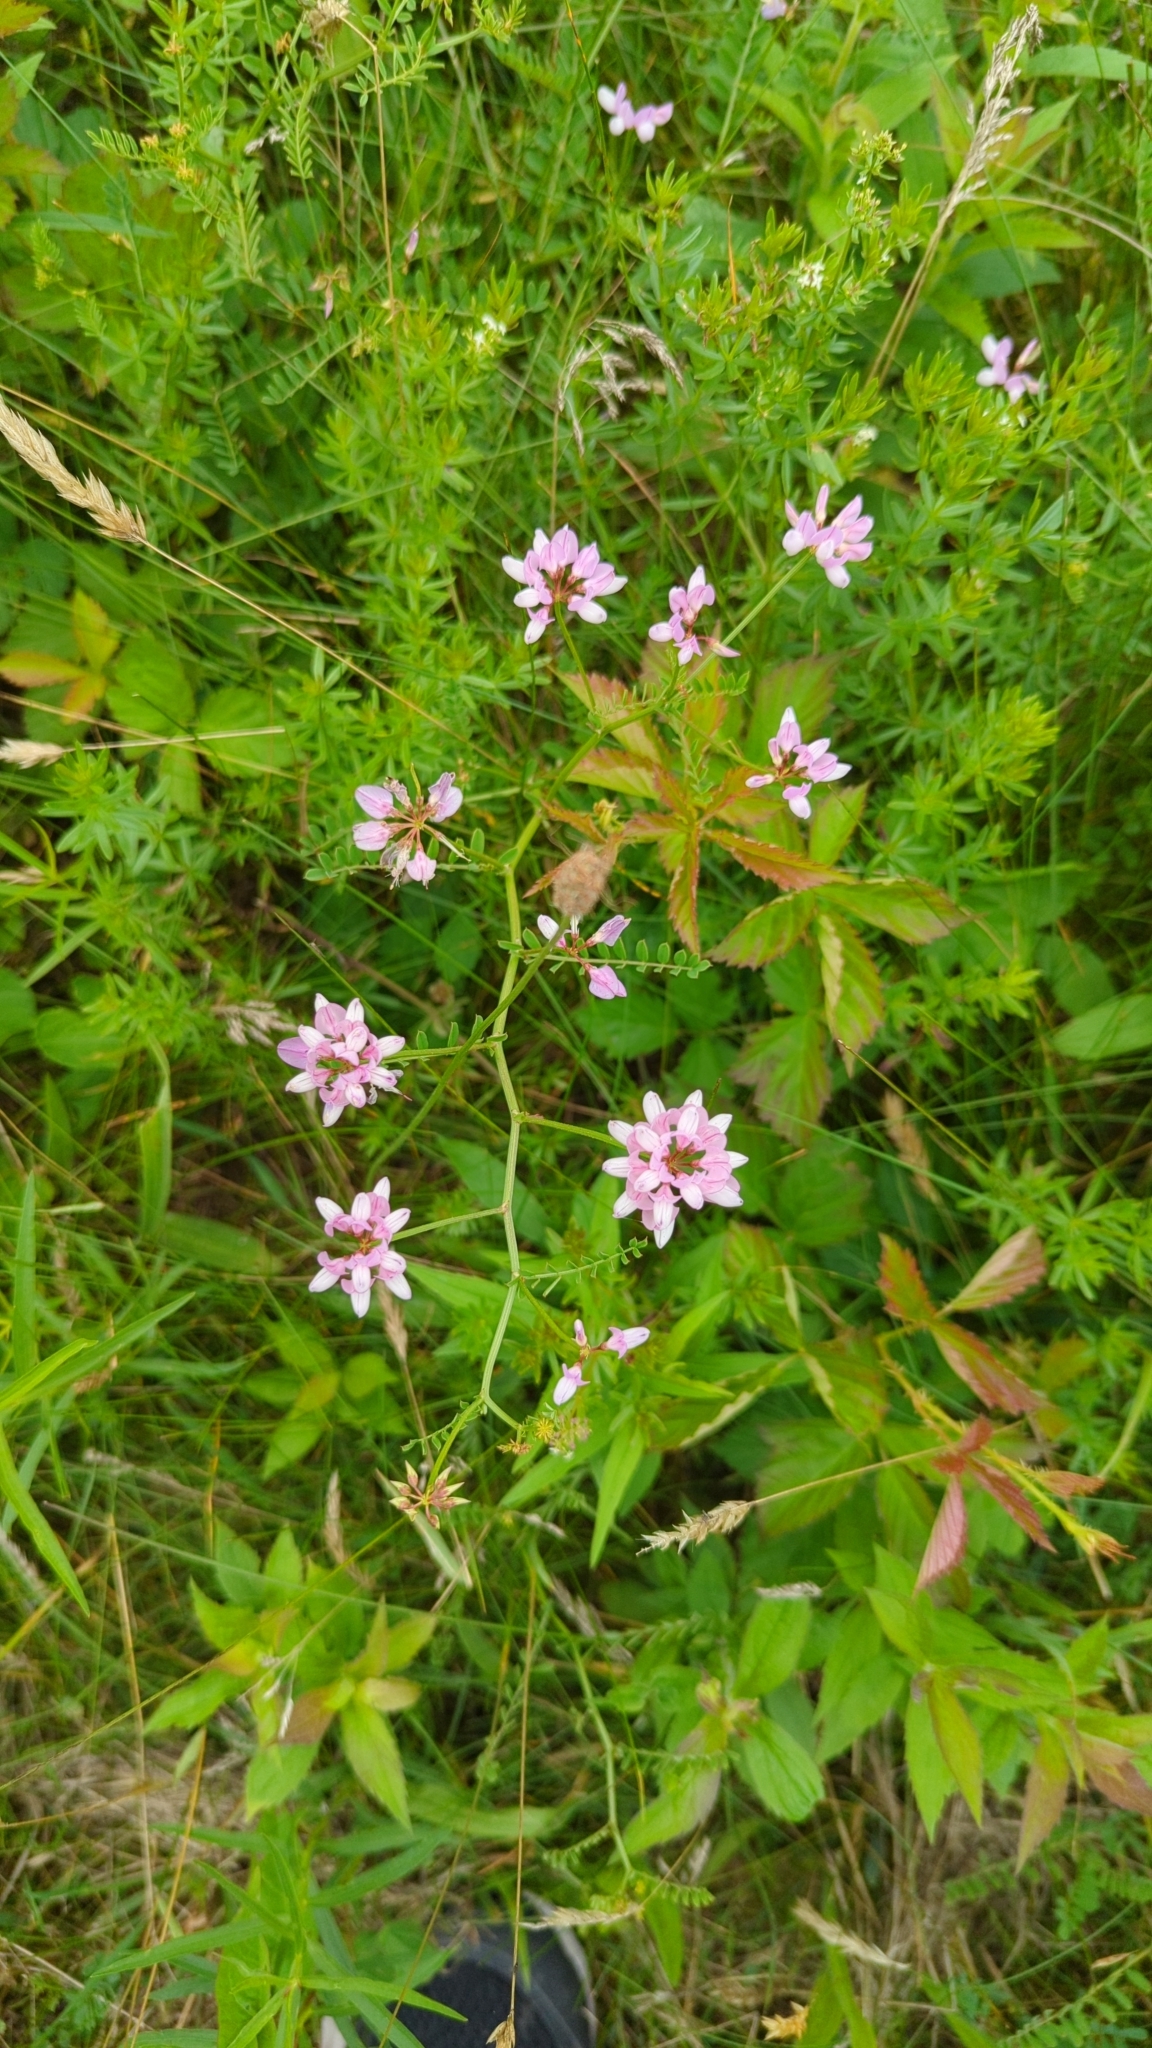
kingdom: Plantae
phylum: Tracheophyta
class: Magnoliopsida
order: Fabales
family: Fabaceae
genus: Coronilla
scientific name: Coronilla varia
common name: Crownvetch
